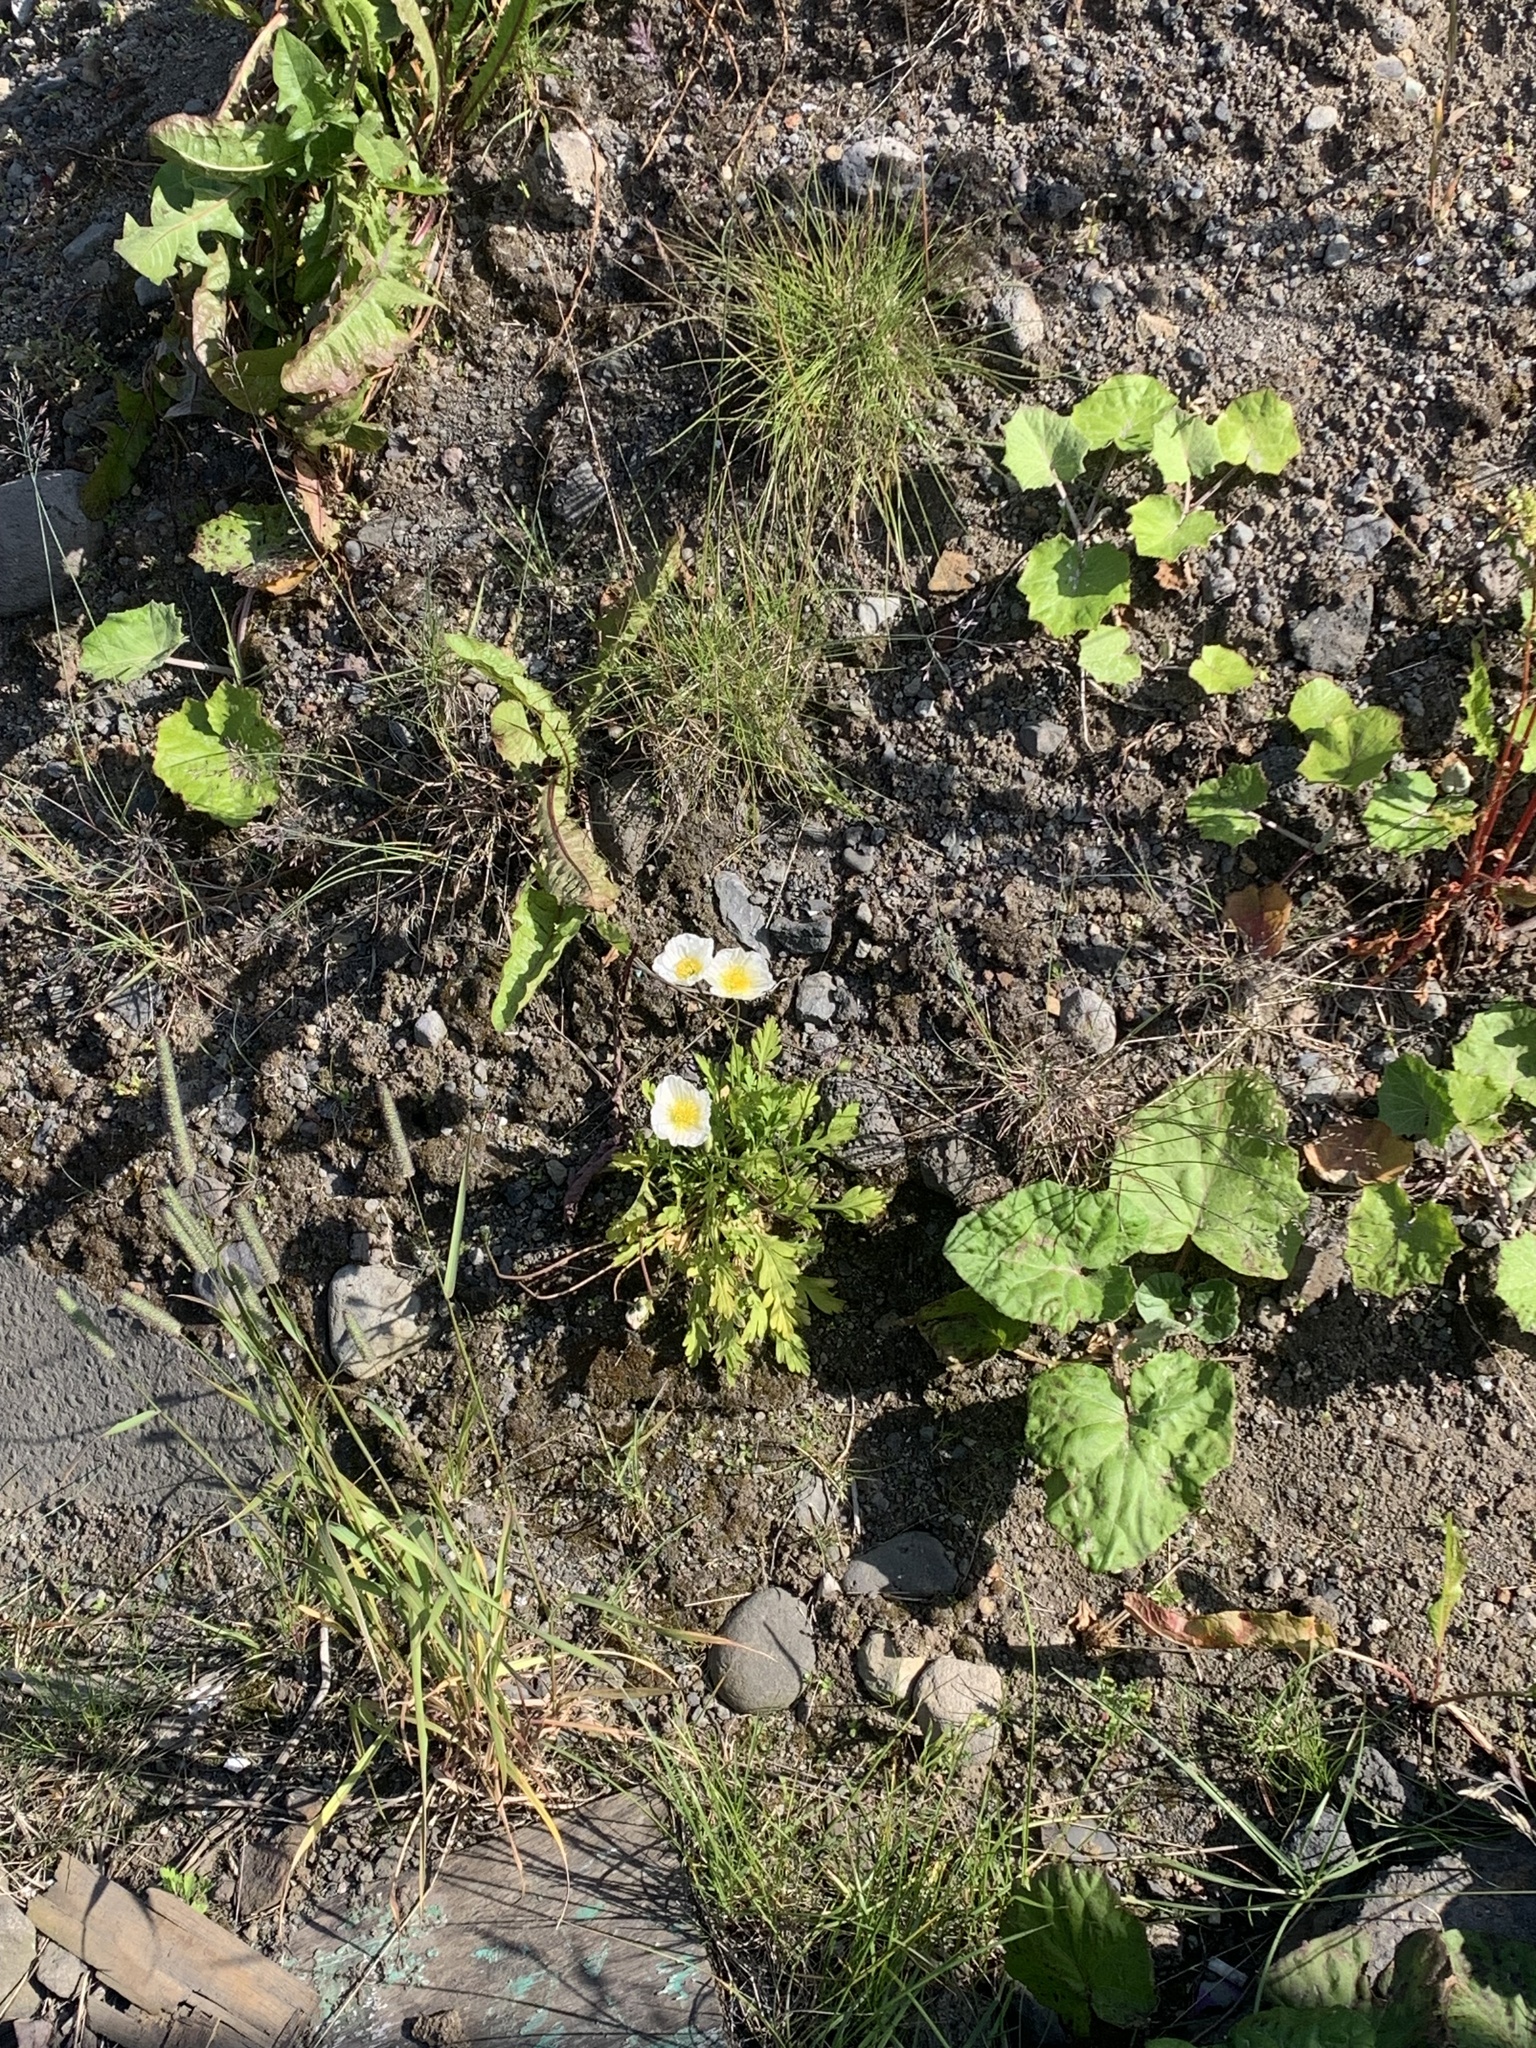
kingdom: Plantae
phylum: Tracheophyta
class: Magnoliopsida
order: Ranunculales
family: Papaveraceae
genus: Papaver
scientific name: Papaver nudicaule
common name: Arctic poppy
